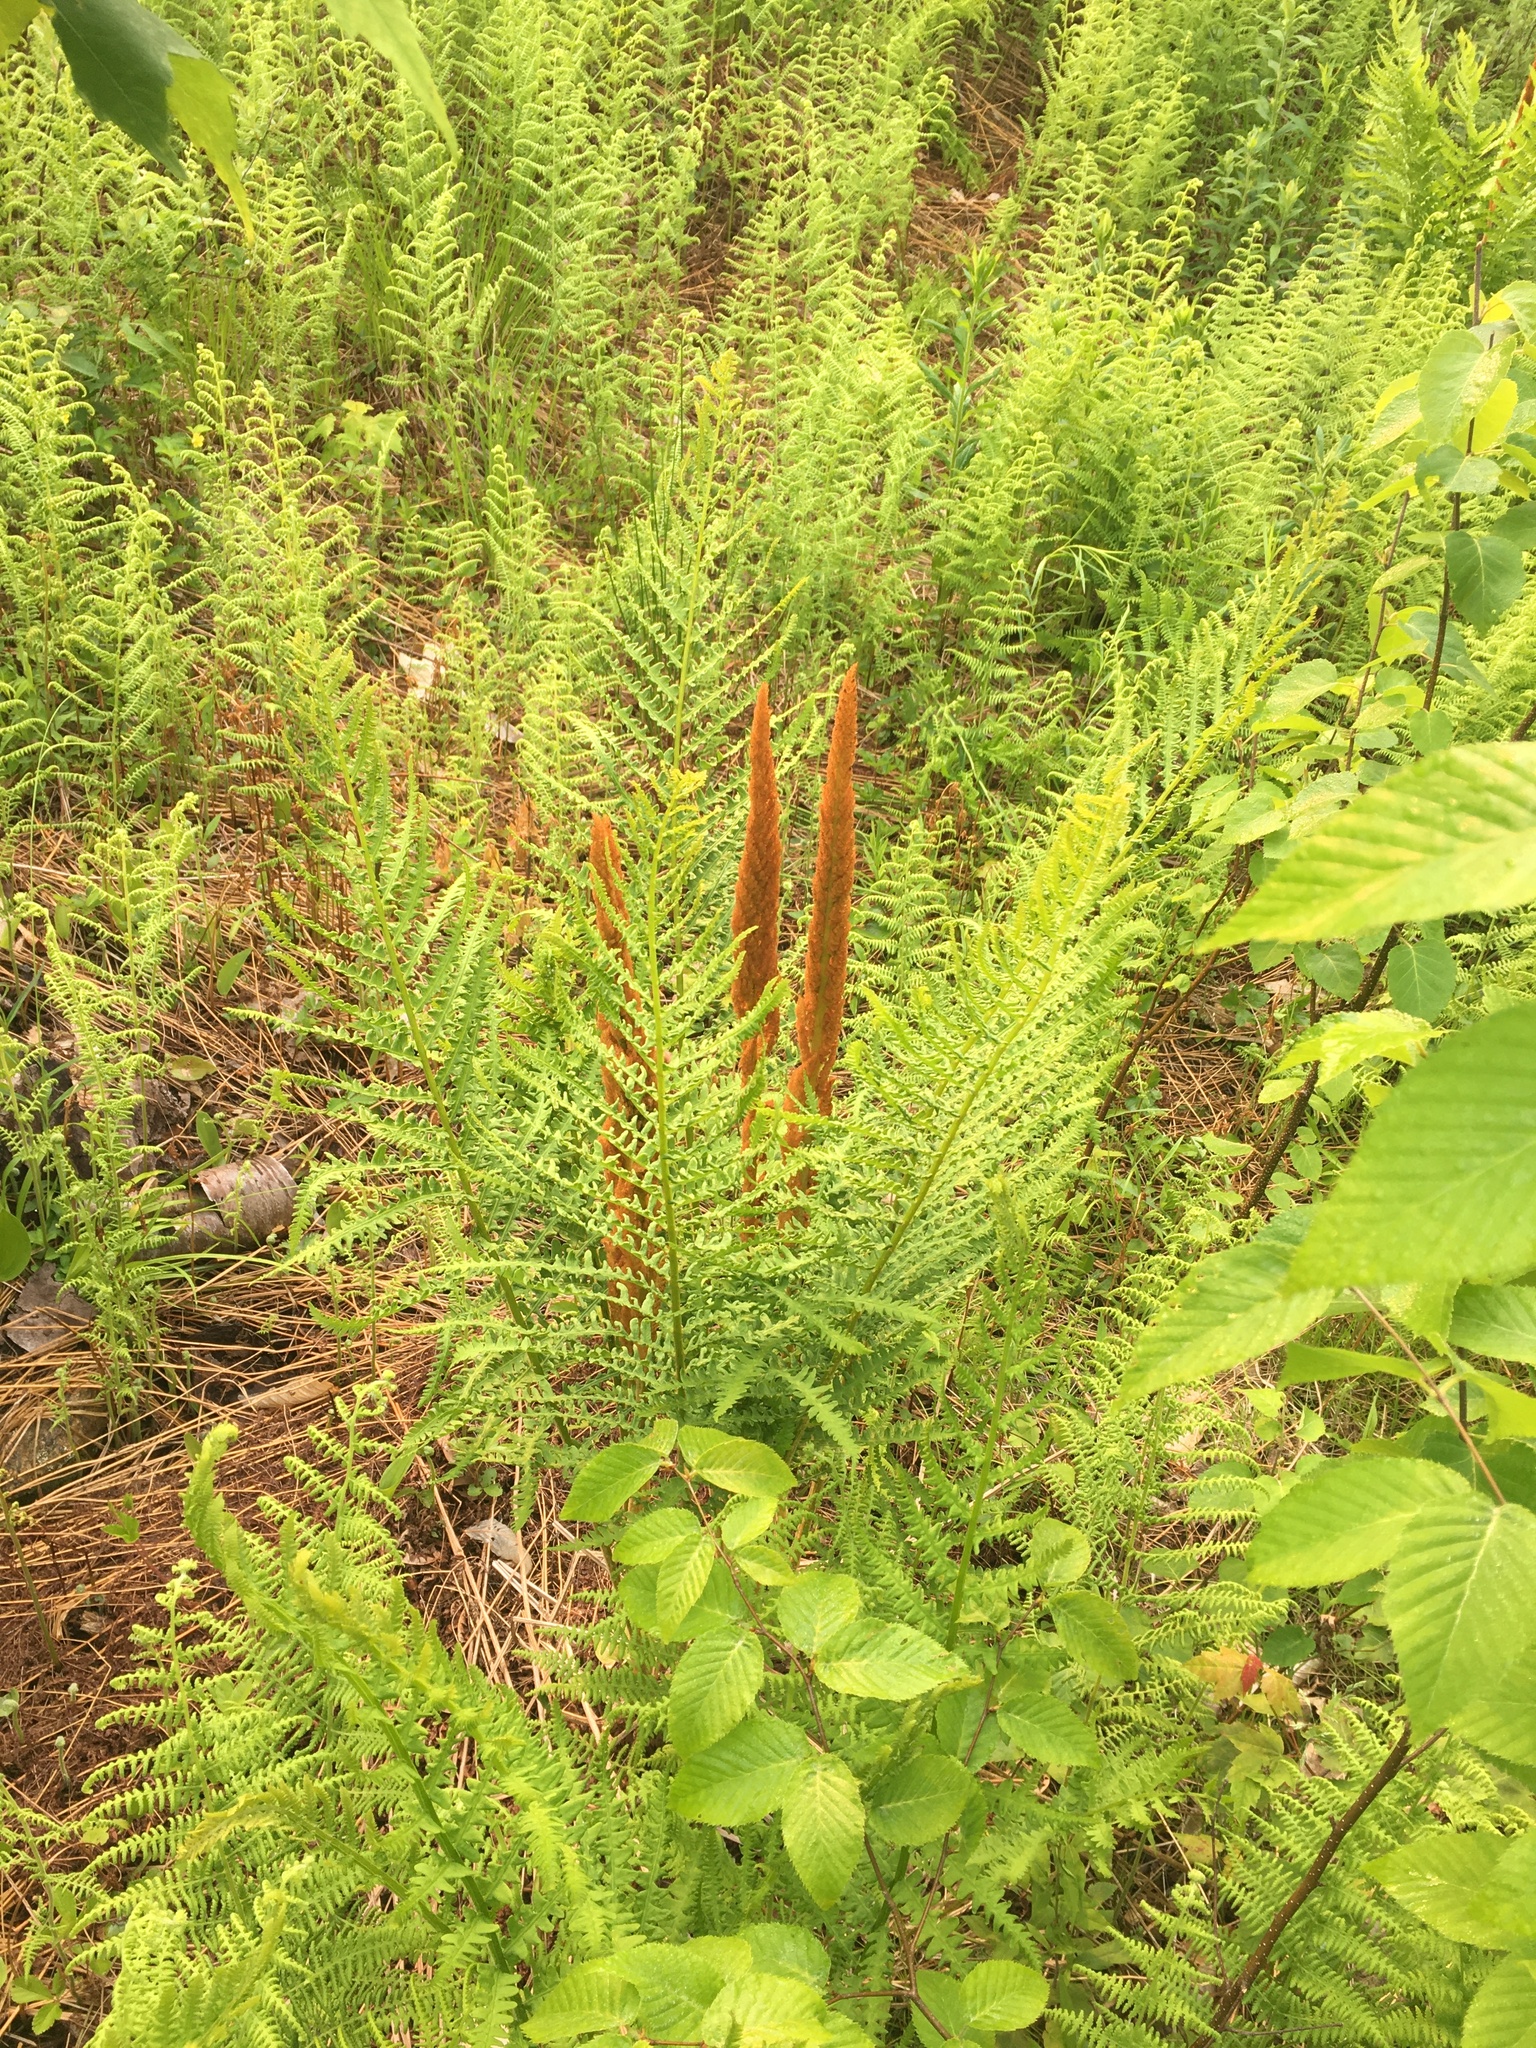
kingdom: Plantae
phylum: Tracheophyta
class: Polypodiopsida
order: Osmundales
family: Osmundaceae
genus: Osmundastrum
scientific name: Osmundastrum cinnamomeum
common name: Cinnamon fern
